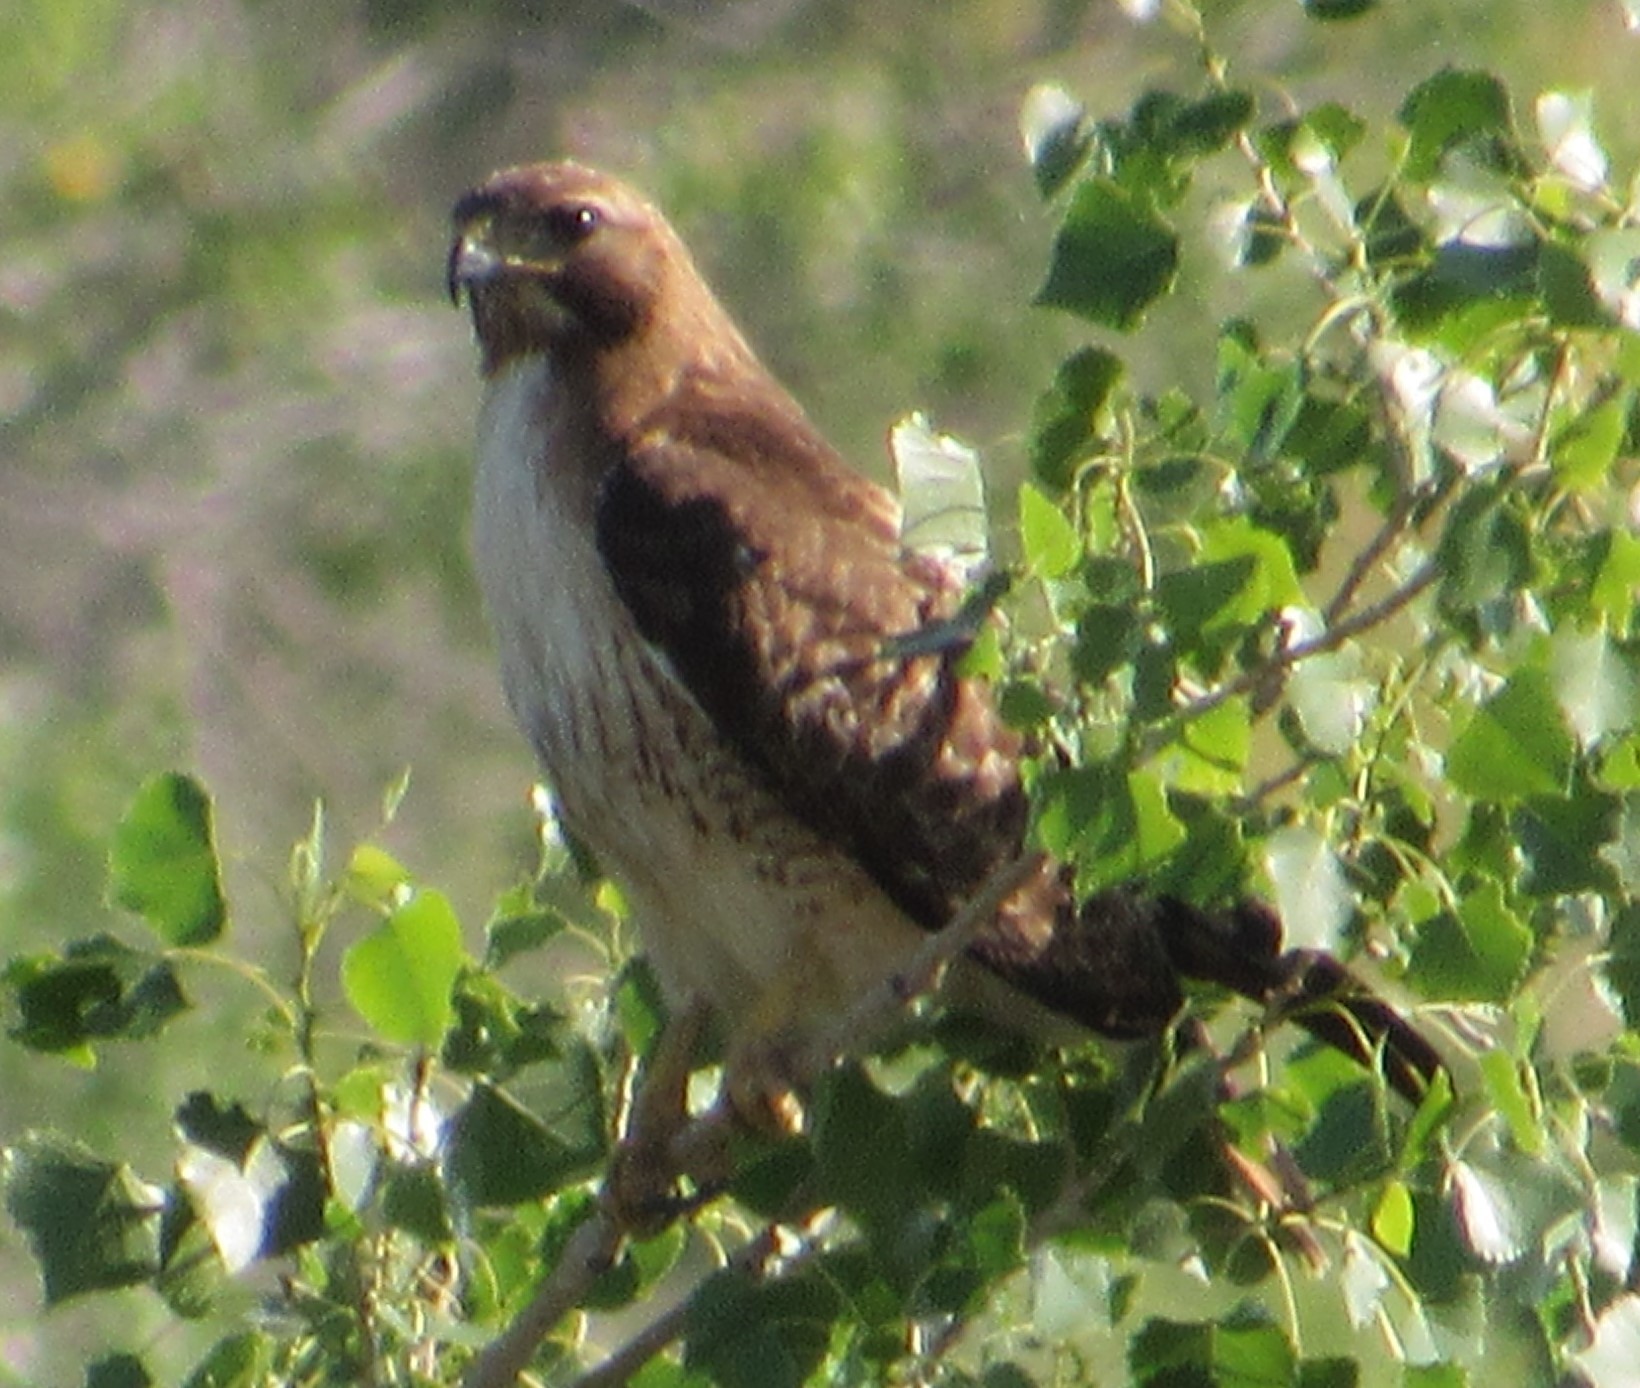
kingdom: Animalia
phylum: Chordata
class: Aves
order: Accipitriformes
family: Accipitridae
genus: Buteo
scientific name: Buteo jamaicensis
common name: Red-tailed hawk
